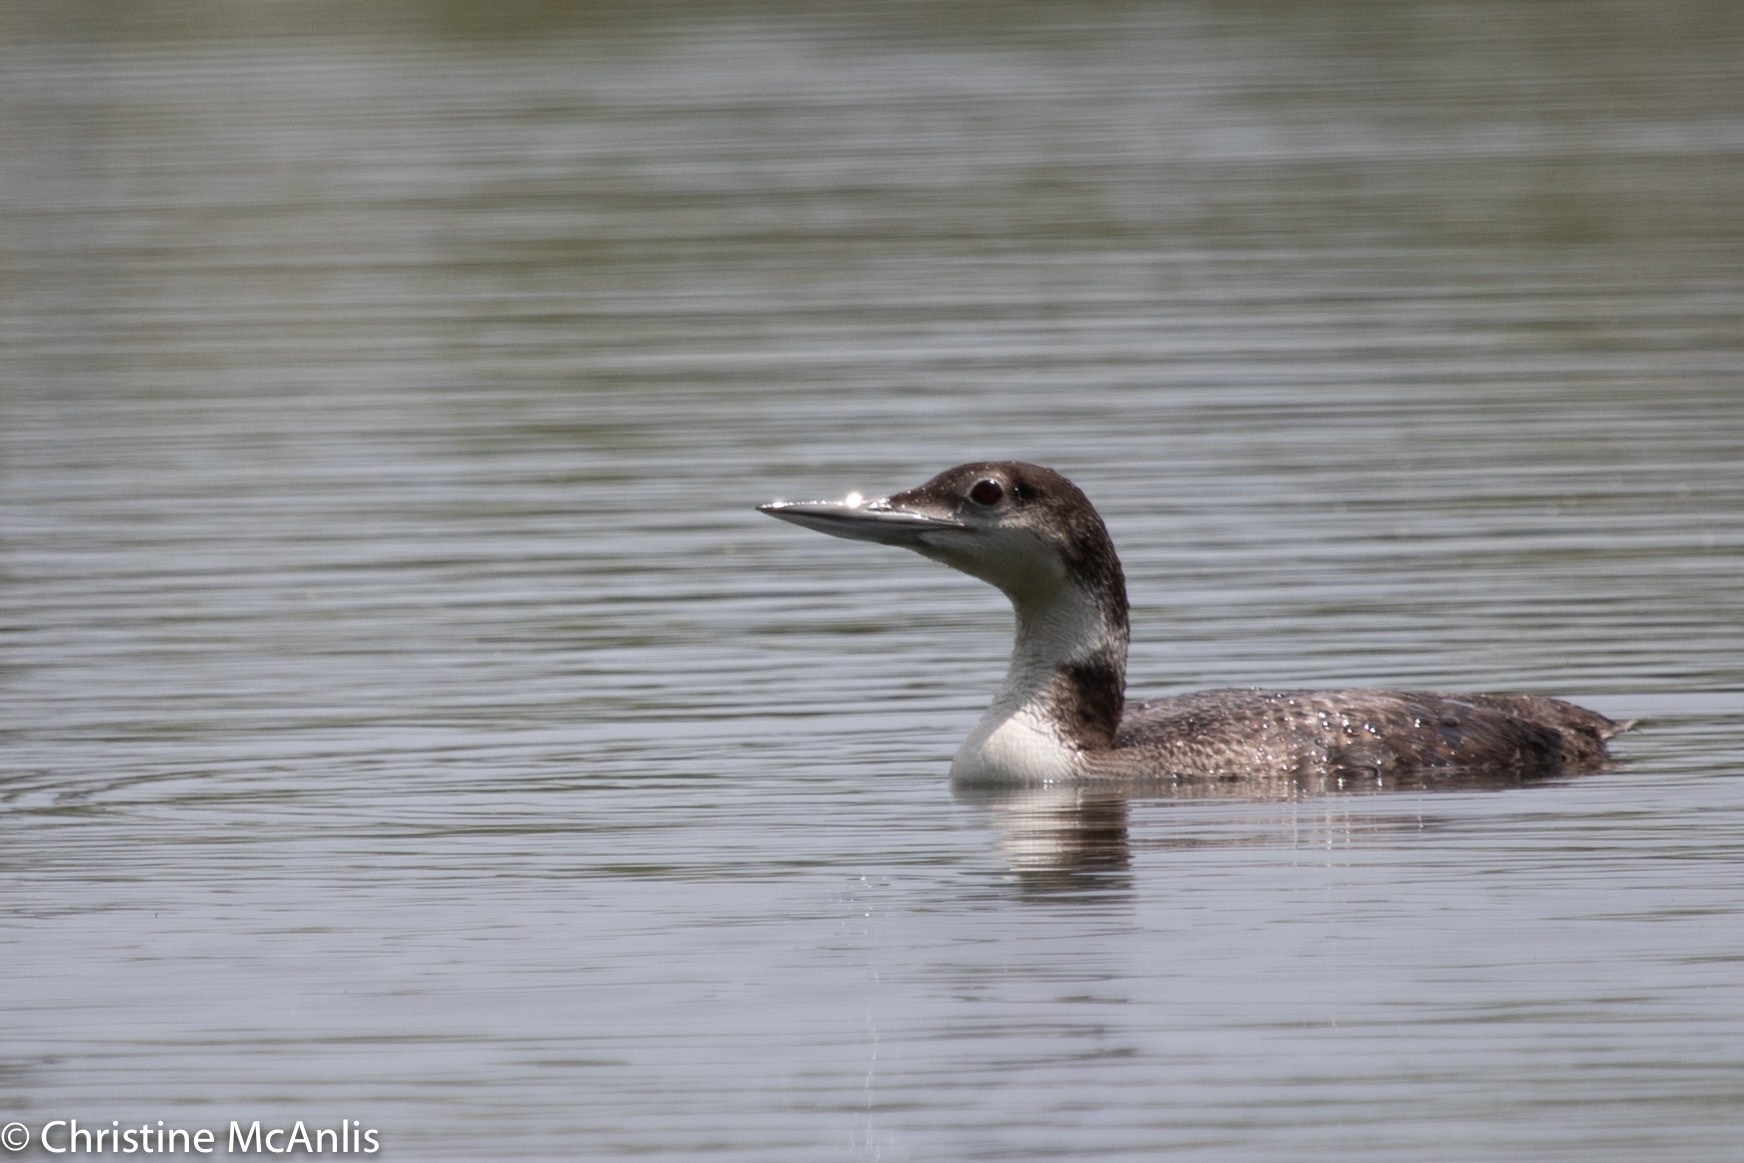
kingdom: Animalia
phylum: Chordata
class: Aves
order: Gaviiformes
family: Gaviidae
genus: Gavia
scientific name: Gavia immer
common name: Common loon
